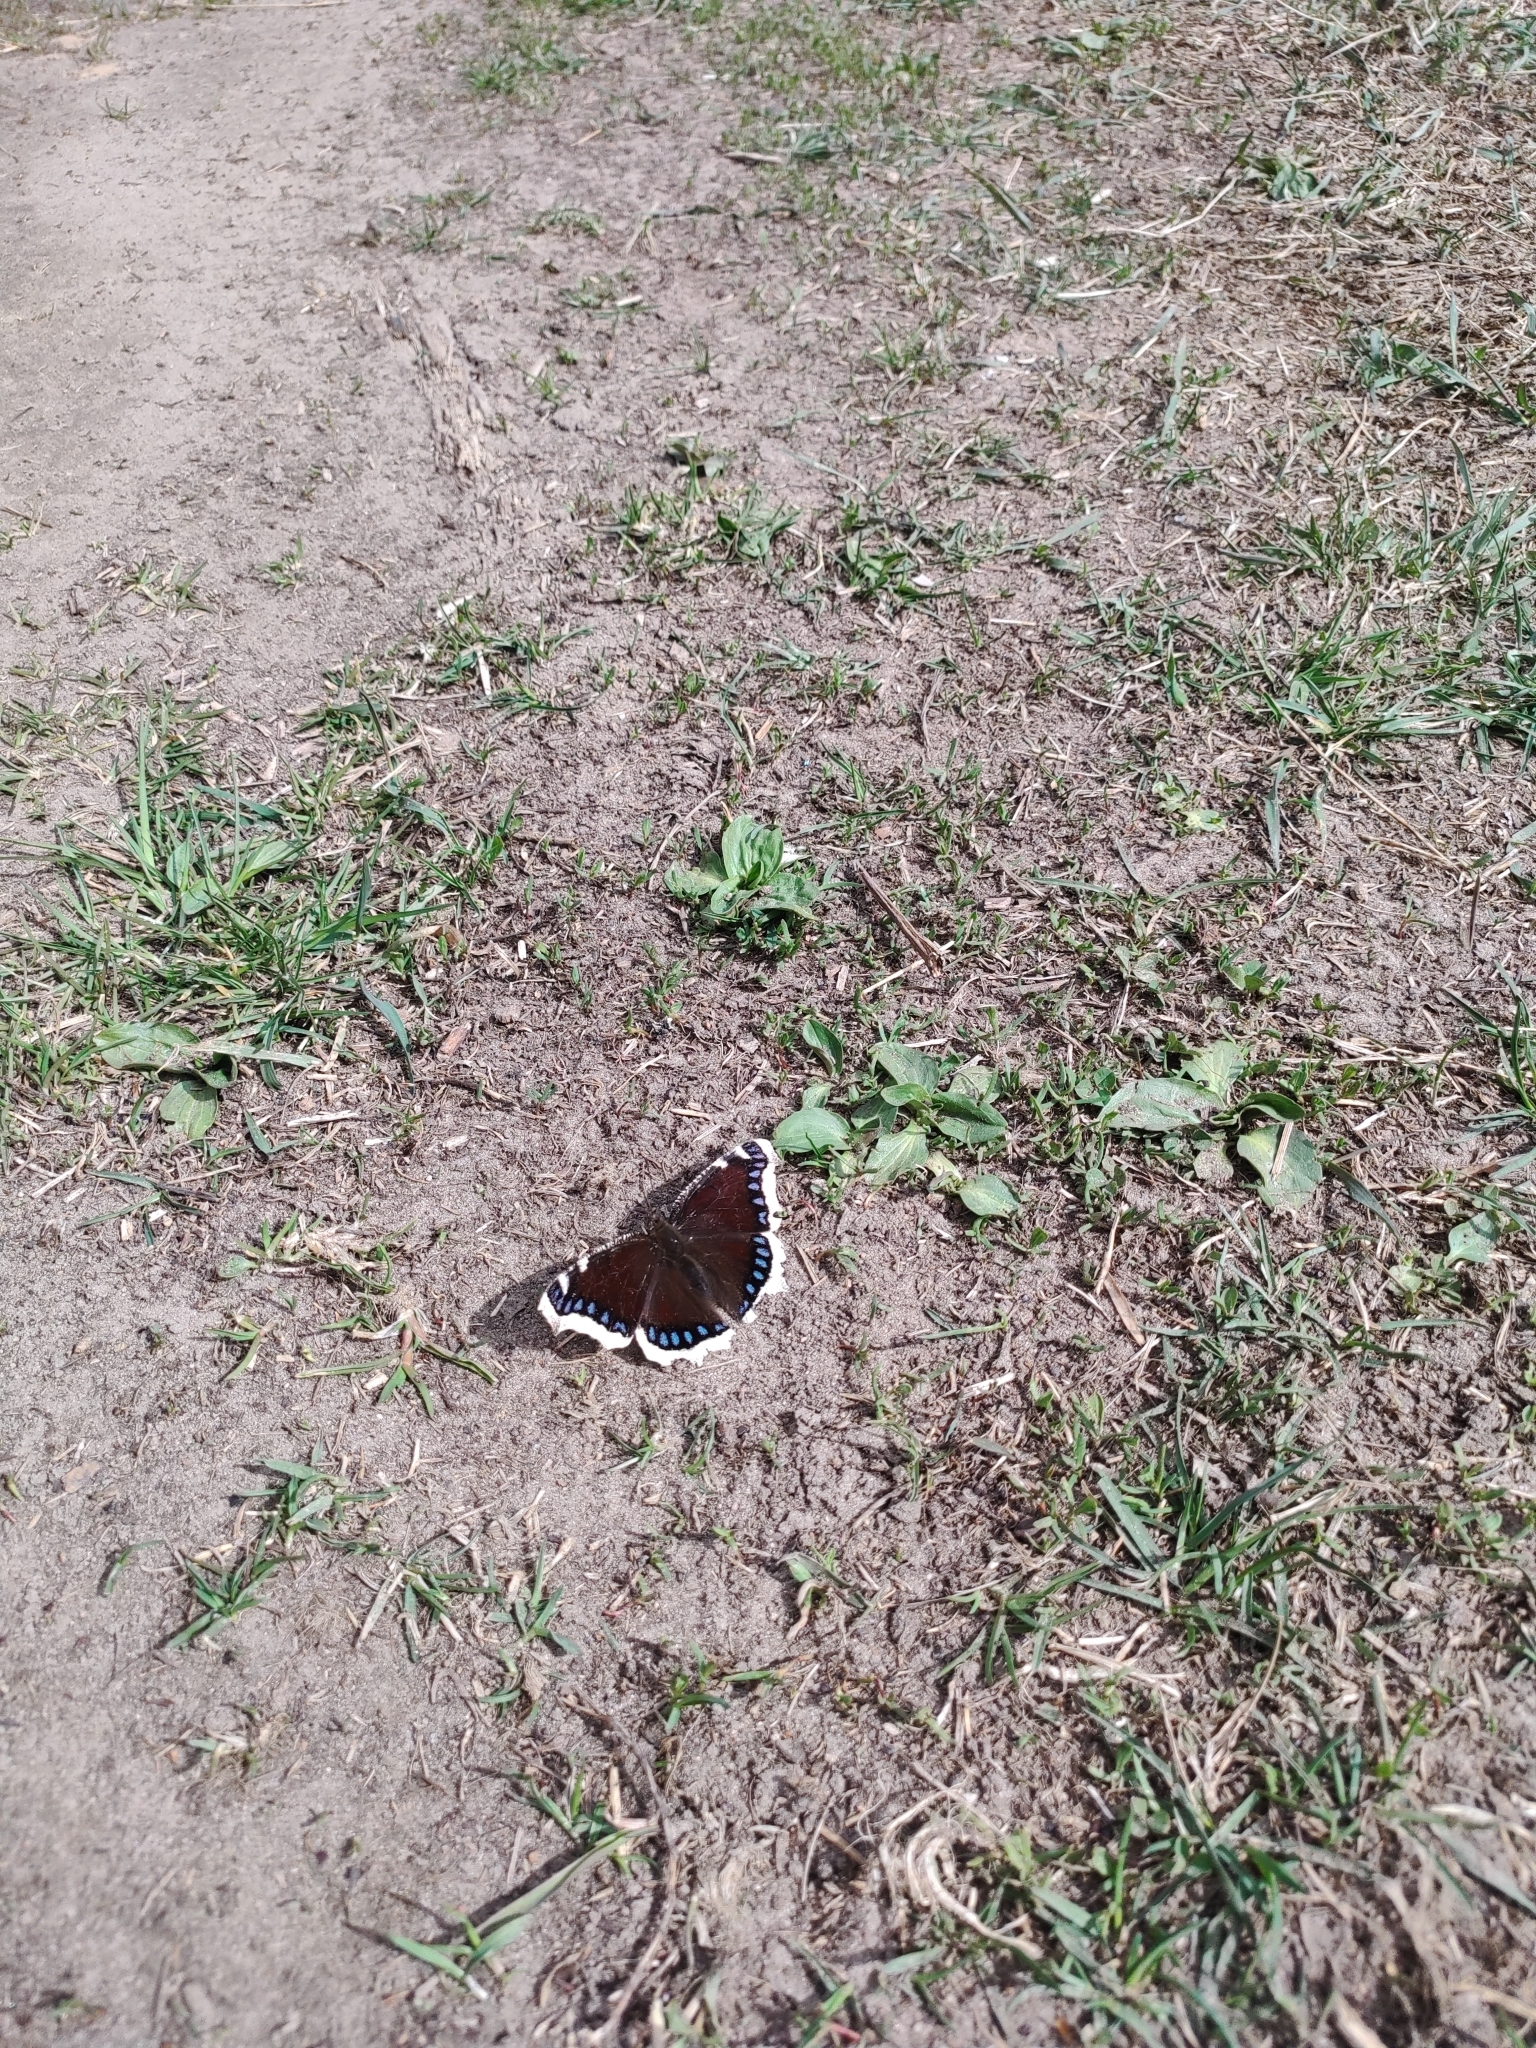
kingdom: Animalia
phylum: Arthropoda
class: Insecta
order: Lepidoptera
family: Nymphalidae
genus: Nymphalis
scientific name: Nymphalis antiopa
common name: Camberwell beauty
